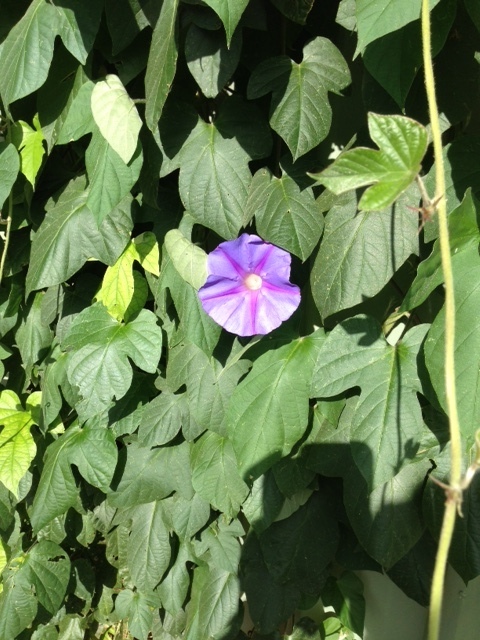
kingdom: Plantae
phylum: Tracheophyta
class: Magnoliopsida
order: Solanales
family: Convolvulaceae
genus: Ipomoea
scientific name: Ipomoea indica
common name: Blue dawnflower
